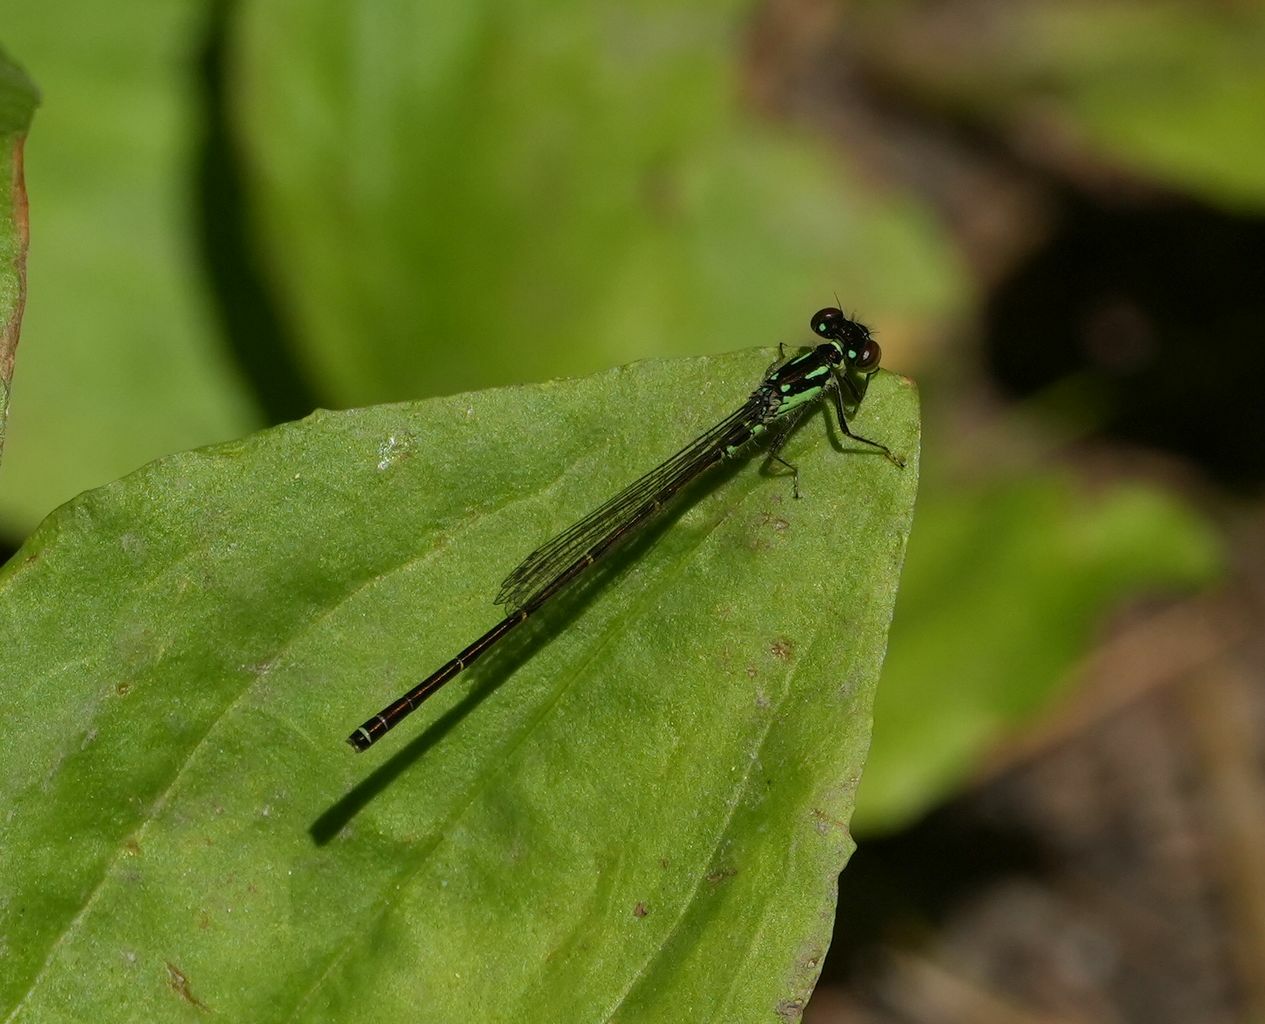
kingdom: Animalia
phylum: Arthropoda
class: Insecta
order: Odonata
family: Coenagrionidae
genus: Ischnura
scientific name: Ischnura posita
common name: Fragile forktail
